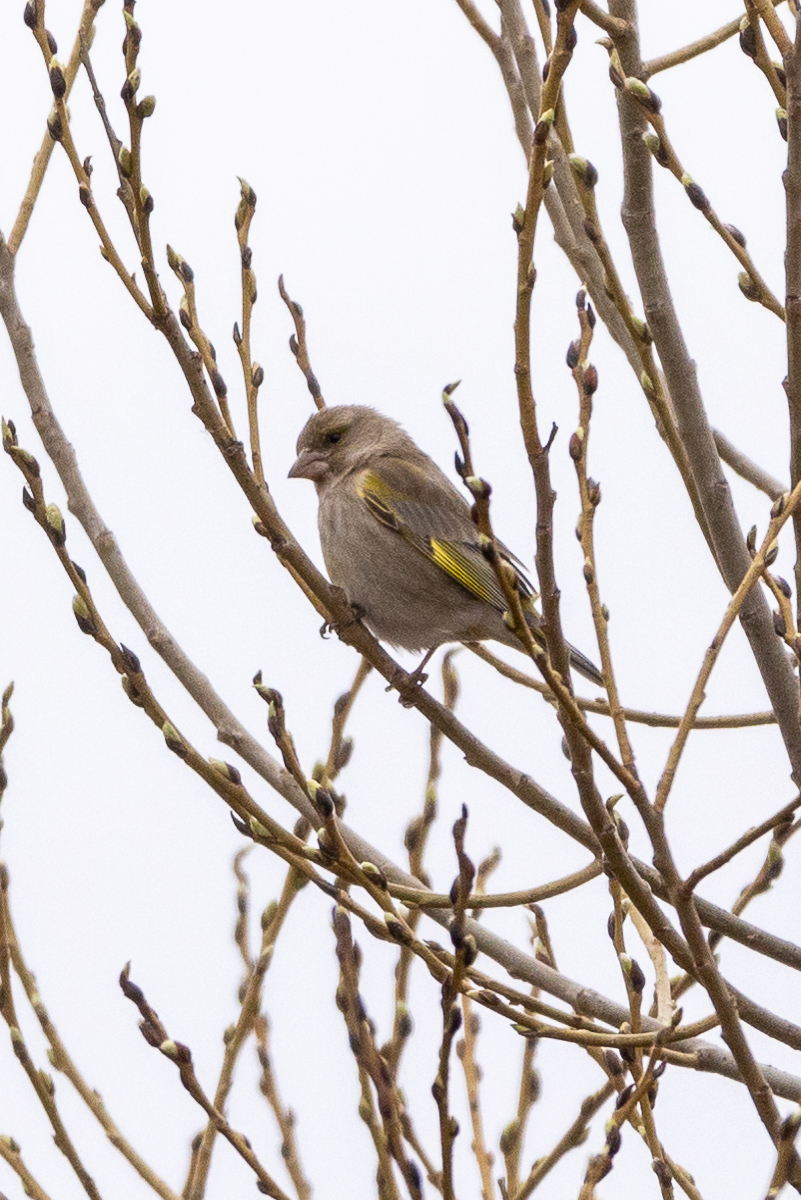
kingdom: Plantae
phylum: Tracheophyta
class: Liliopsida
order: Poales
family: Poaceae
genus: Chloris
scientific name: Chloris chloris
